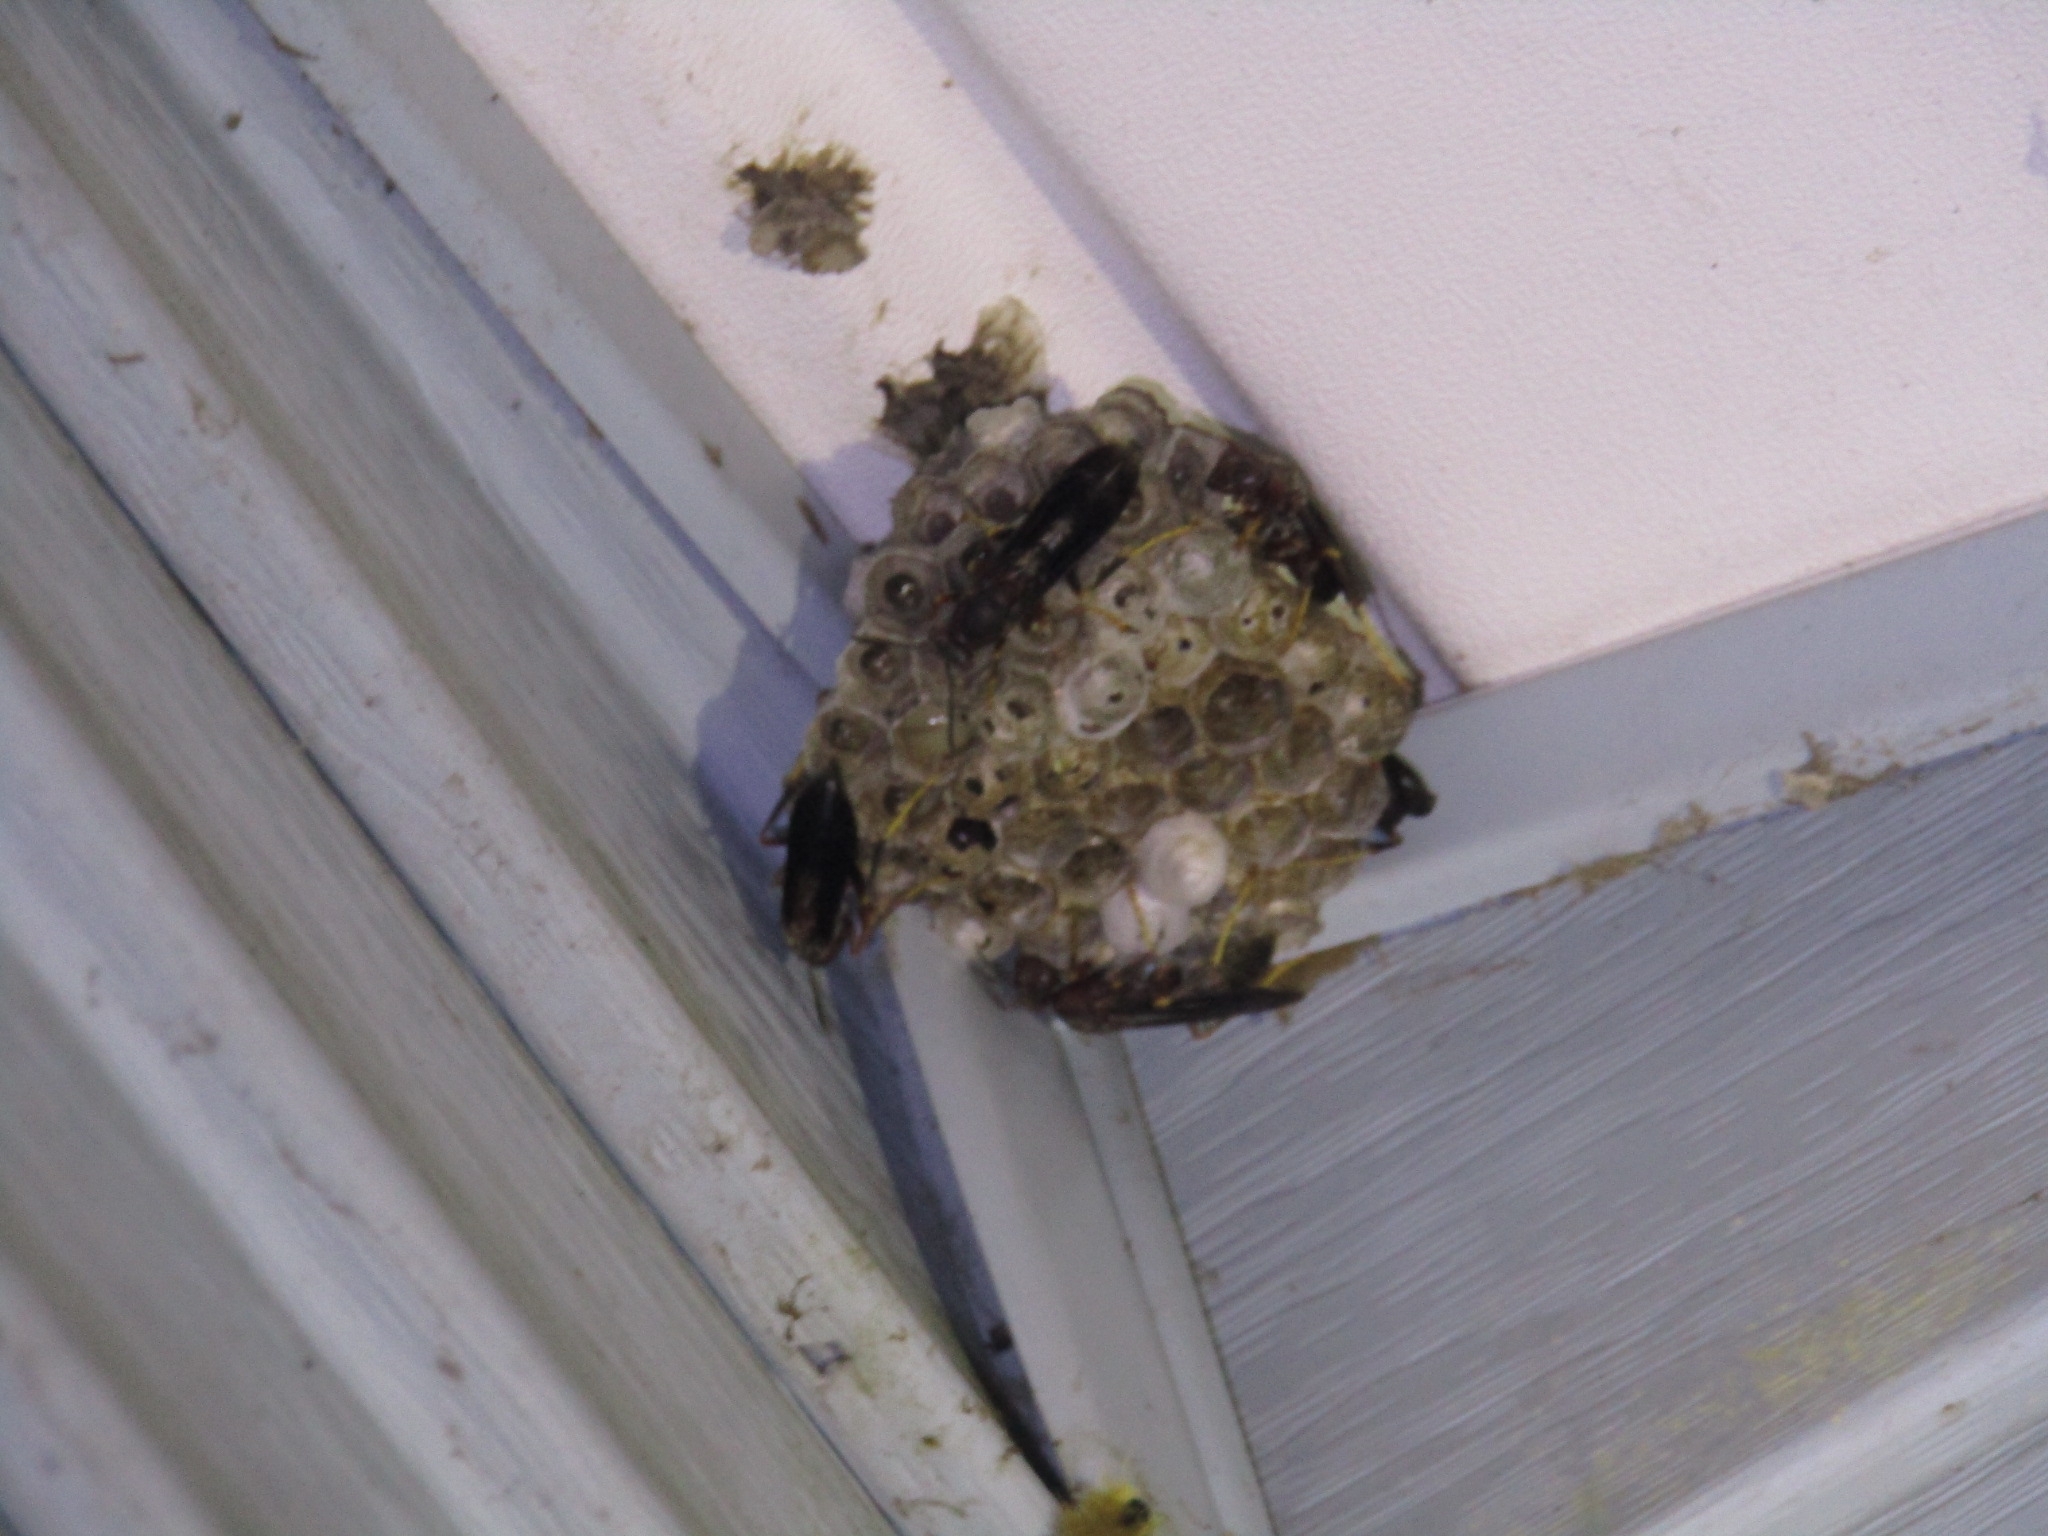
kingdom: Animalia
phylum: Arthropoda
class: Insecta
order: Hymenoptera
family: Eumenidae
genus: Polistes
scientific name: Polistes metricus
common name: Metric paper wasp
